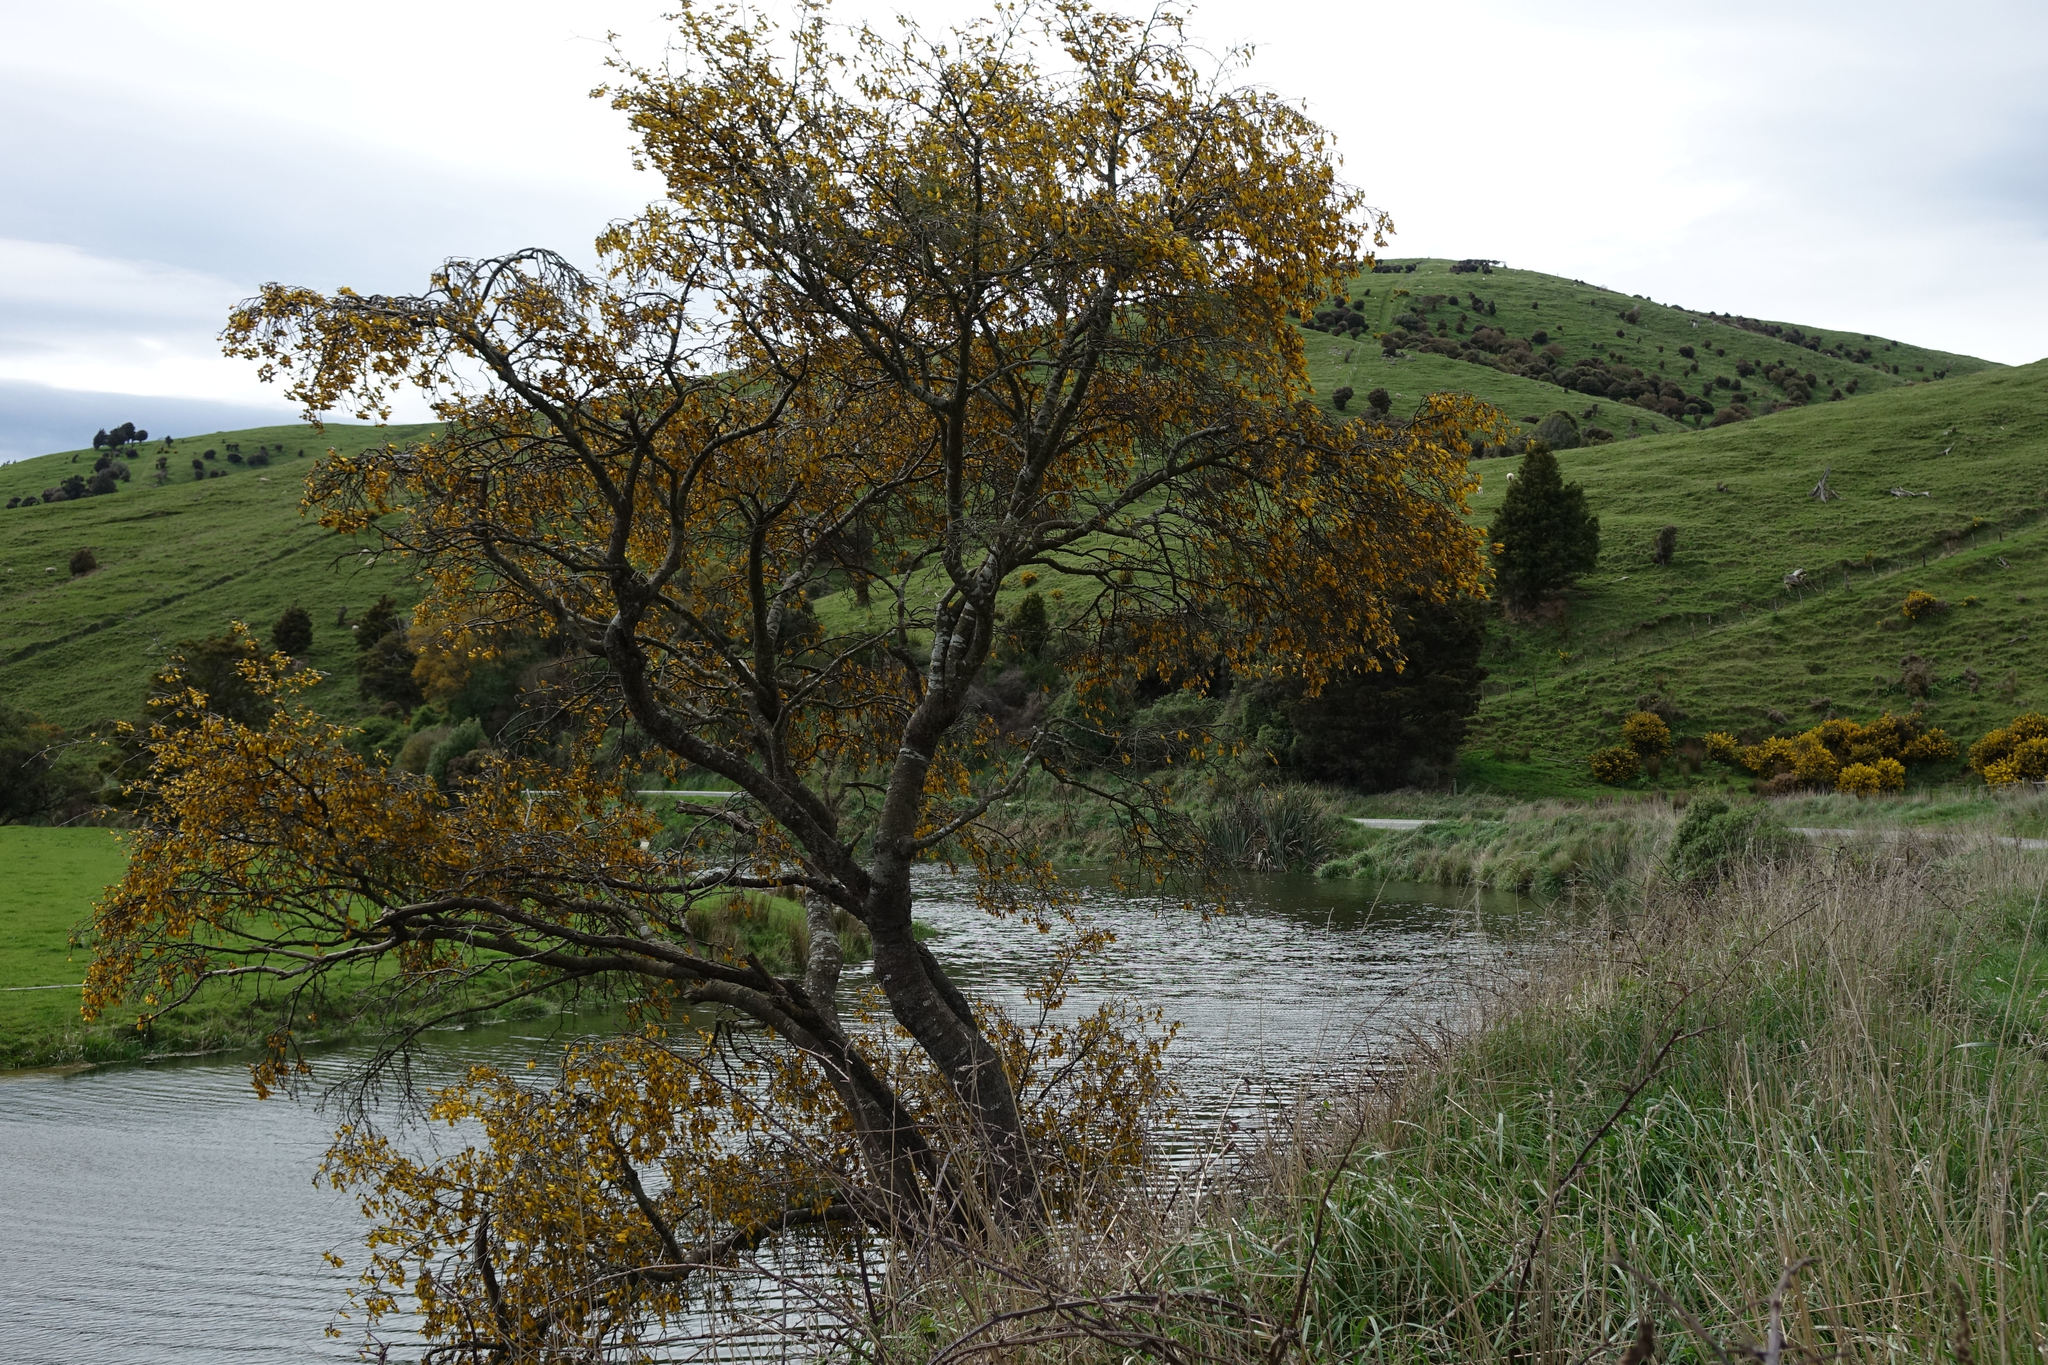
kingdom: Plantae
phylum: Tracheophyta
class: Magnoliopsida
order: Fabales
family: Fabaceae
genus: Sophora
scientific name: Sophora microphylla
